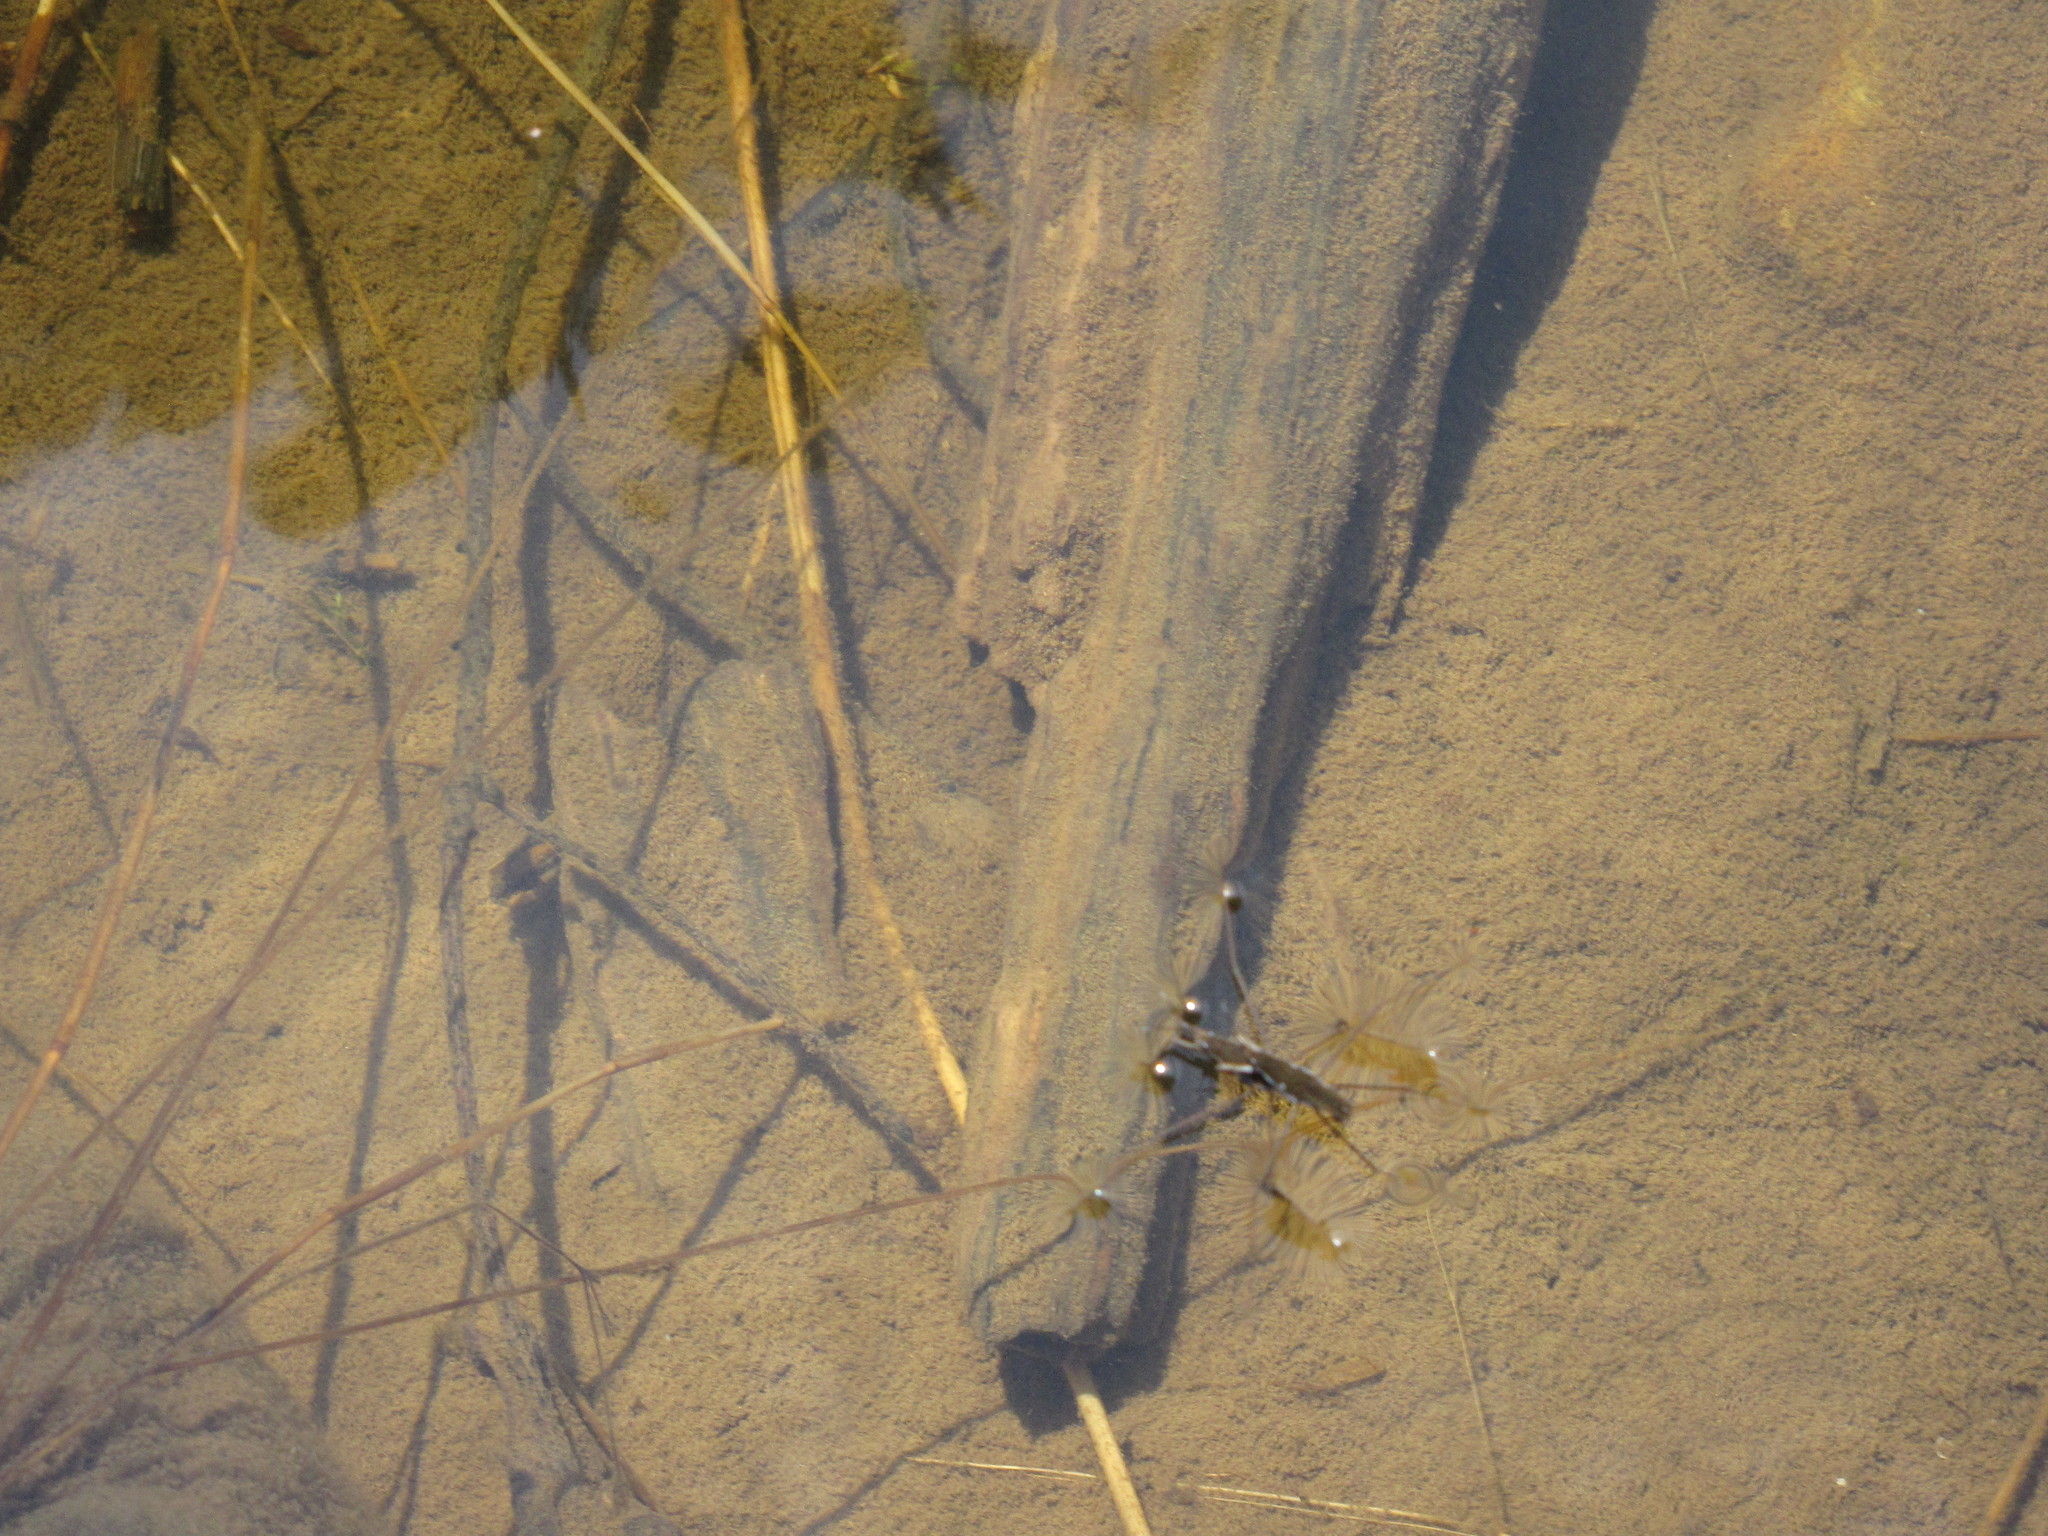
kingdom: Animalia
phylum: Arthropoda
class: Insecta
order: Hemiptera
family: Gerridae
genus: Aquarius
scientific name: Aquarius remigis
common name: Common water strider
